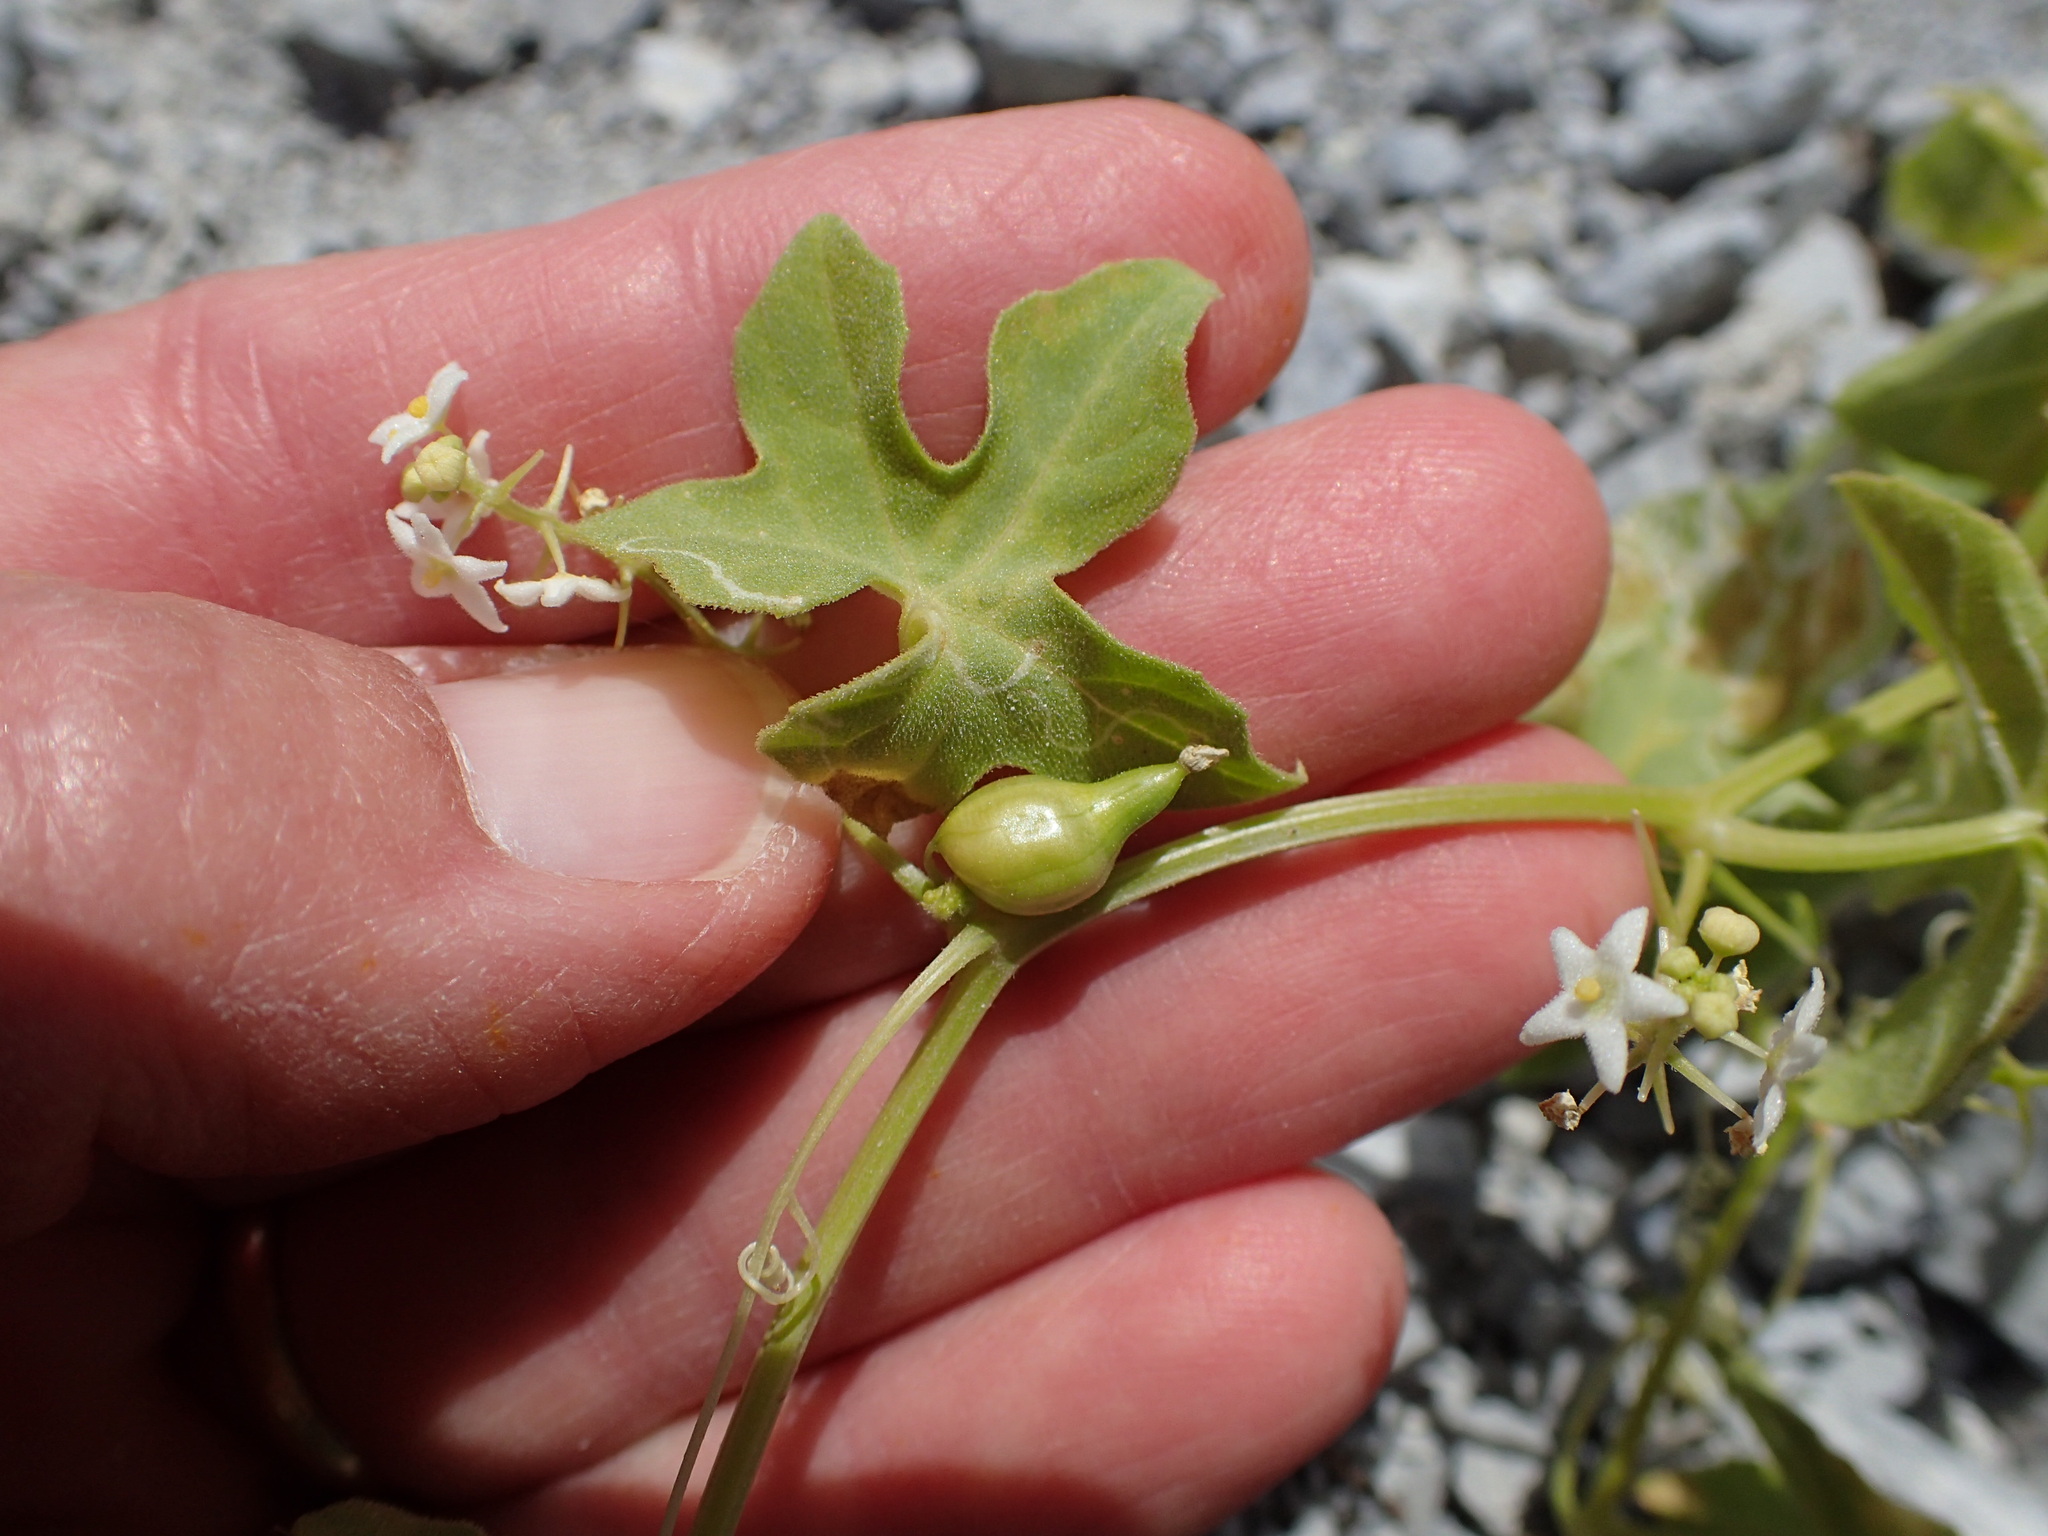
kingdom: Plantae
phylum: Tracheophyta
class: Magnoliopsida
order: Cucurbitales
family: Cucurbitaceae
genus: Echinopepon
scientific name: Echinopepon insularis
